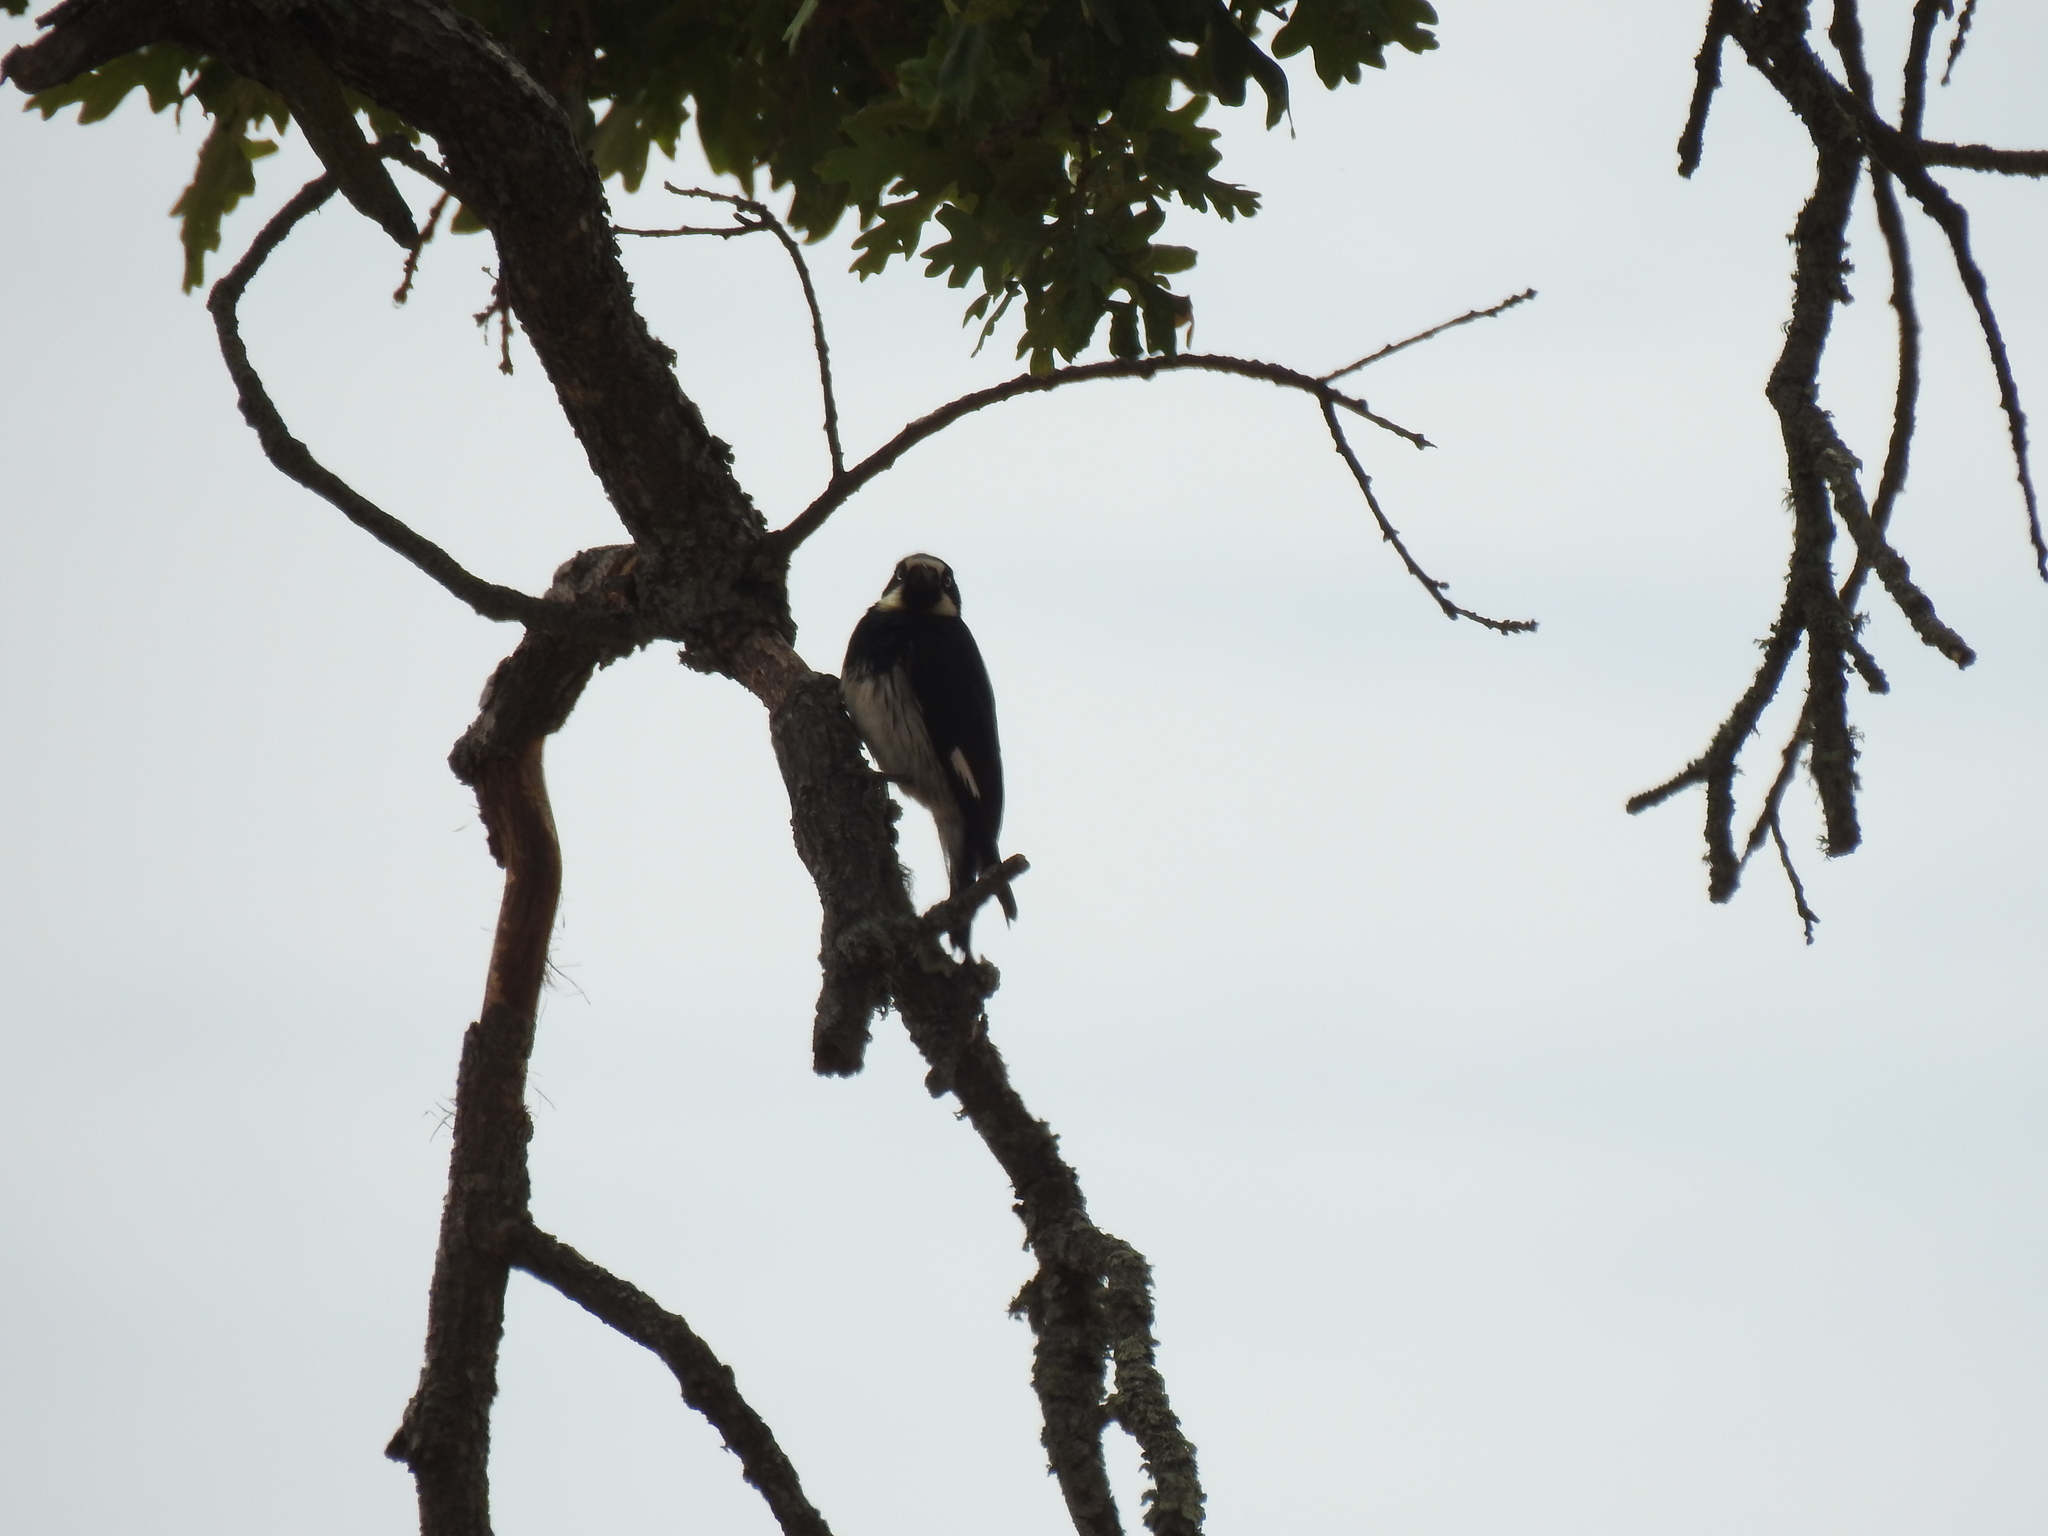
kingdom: Animalia
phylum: Chordata
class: Aves
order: Piciformes
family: Picidae
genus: Melanerpes
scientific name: Melanerpes formicivorus
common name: Acorn woodpecker
